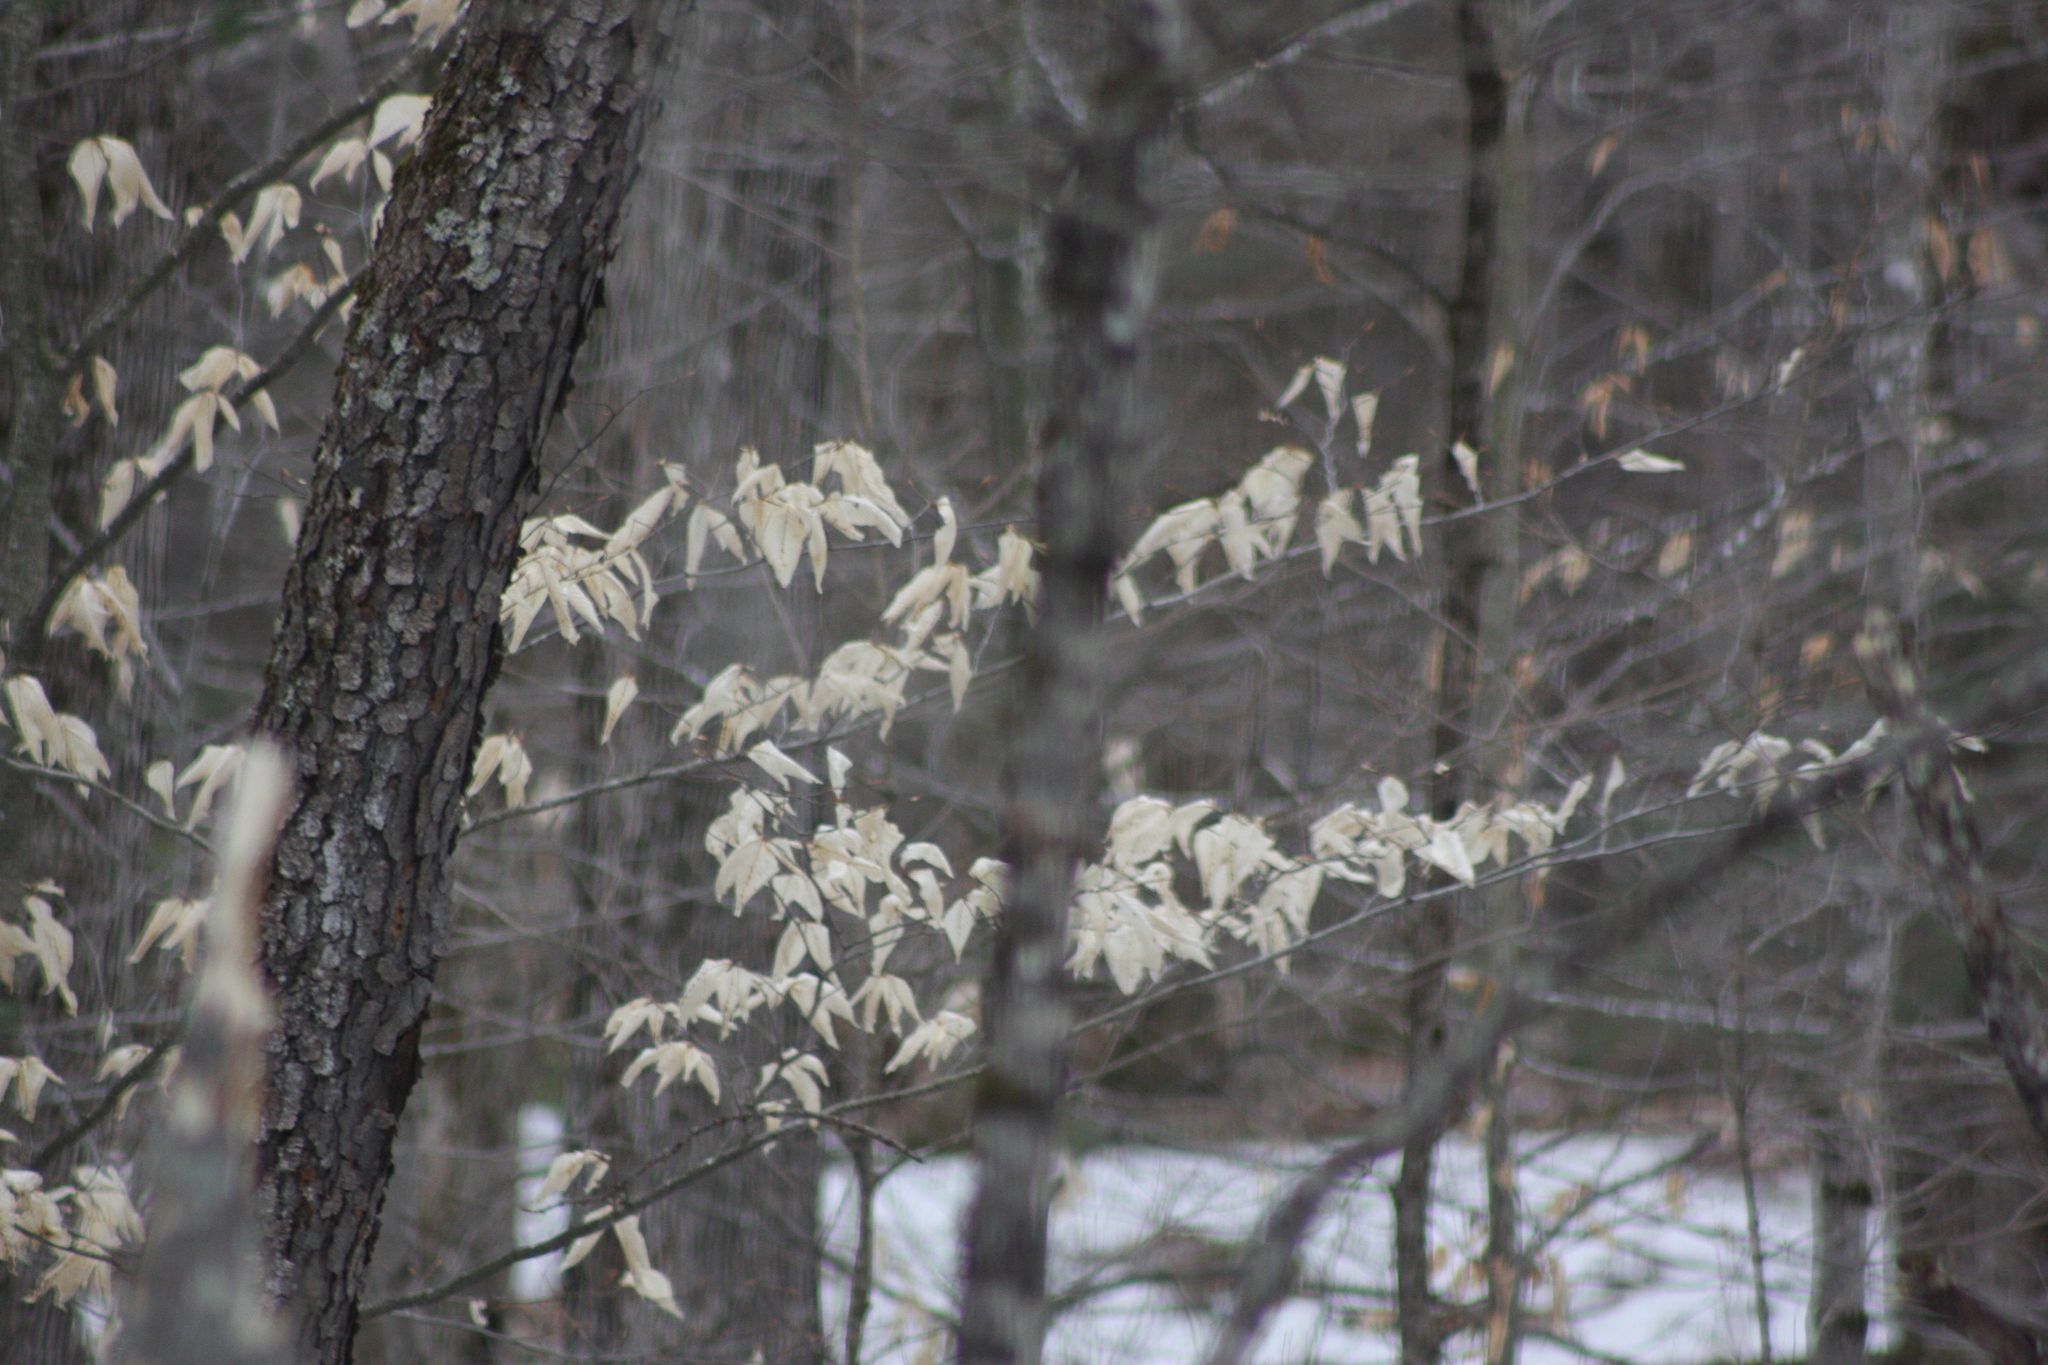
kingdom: Plantae
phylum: Tracheophyta
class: Magnoliopsida
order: Fagales
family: Fagaceae
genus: Fagus
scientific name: Fagus grandifolia
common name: American beech
